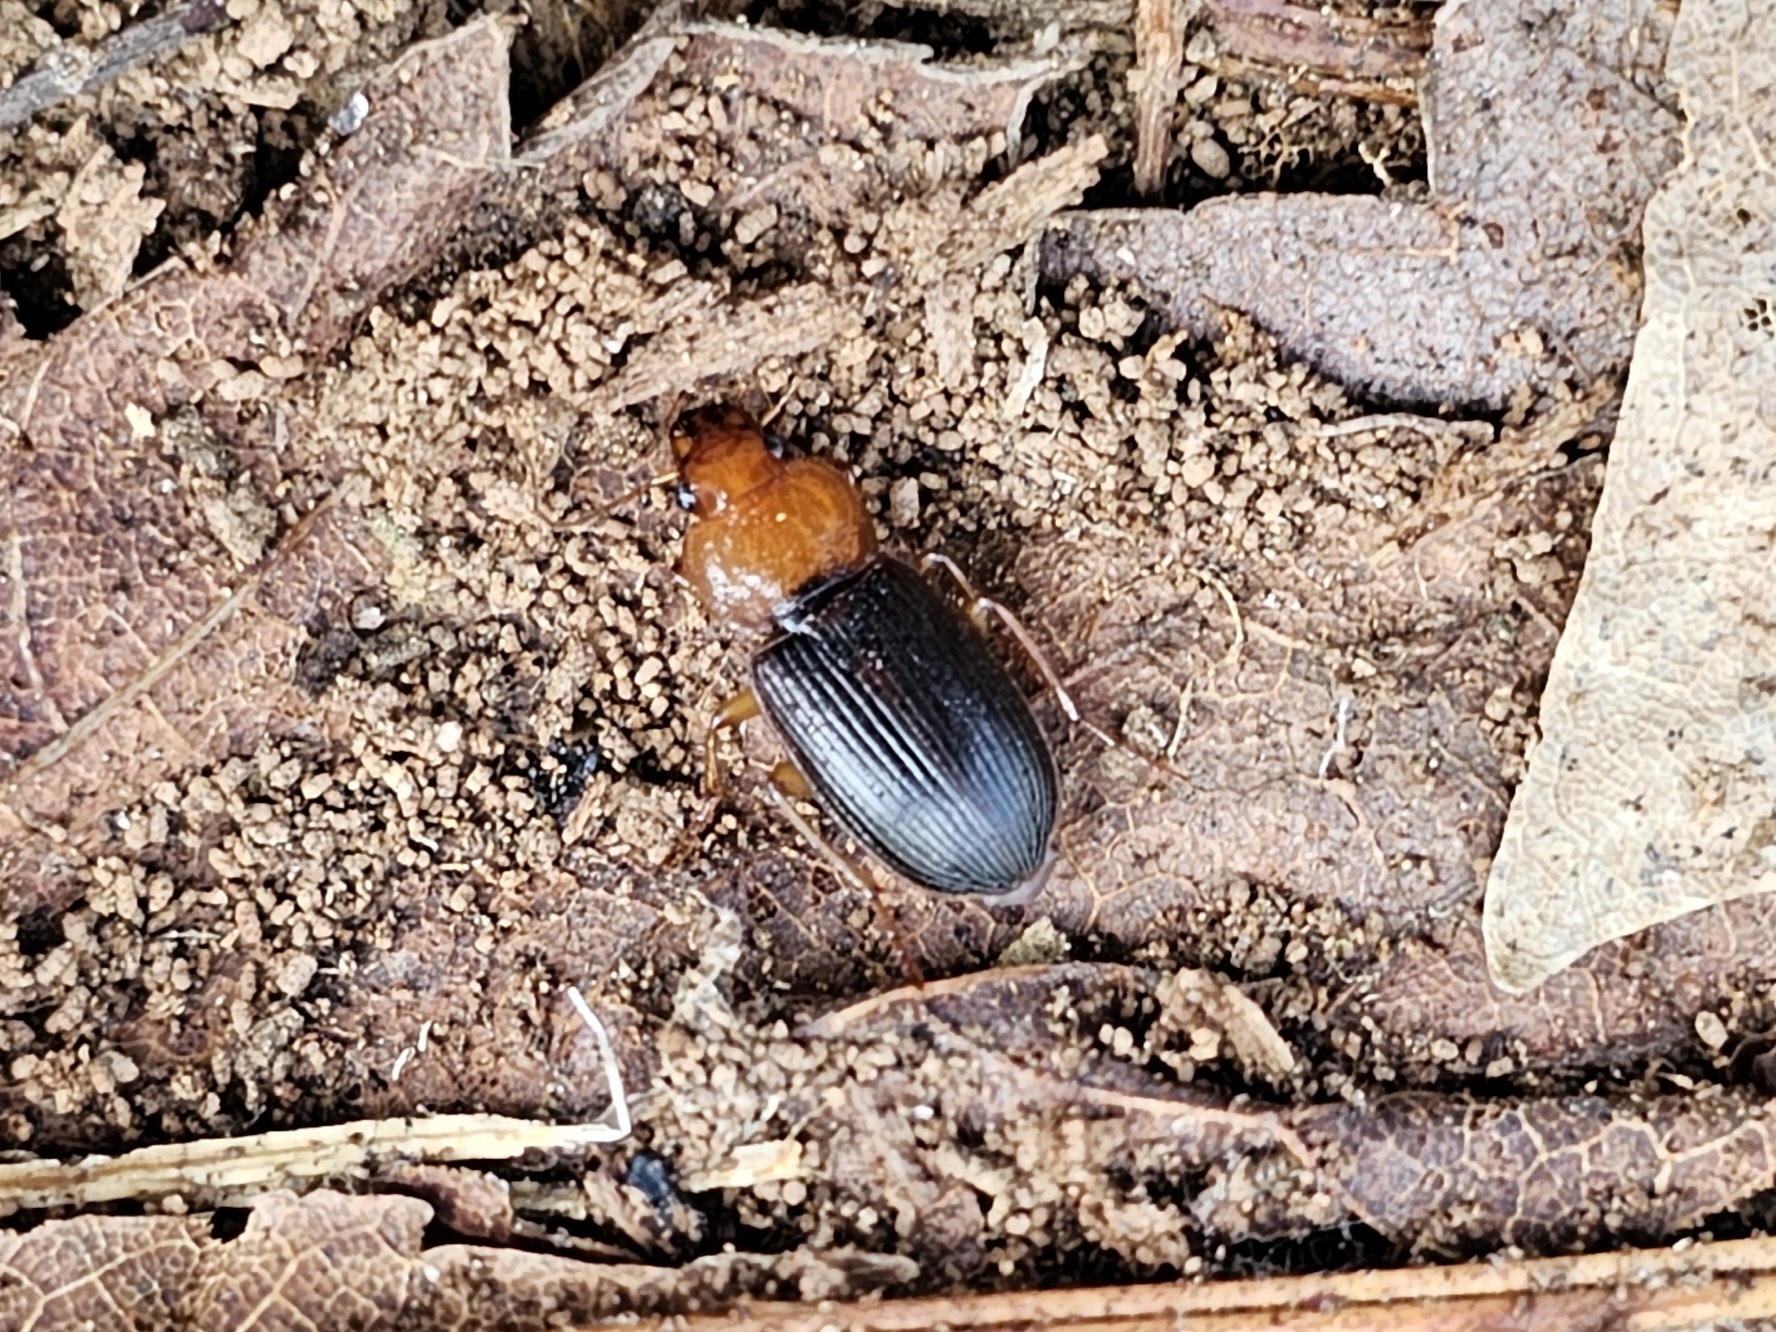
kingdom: Animalia
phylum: Arthropoda
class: Insecta
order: Coleoptera
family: Carabidae
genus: Amphasia
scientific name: Amphasia interstitialis
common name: Red-headed ground beetle
